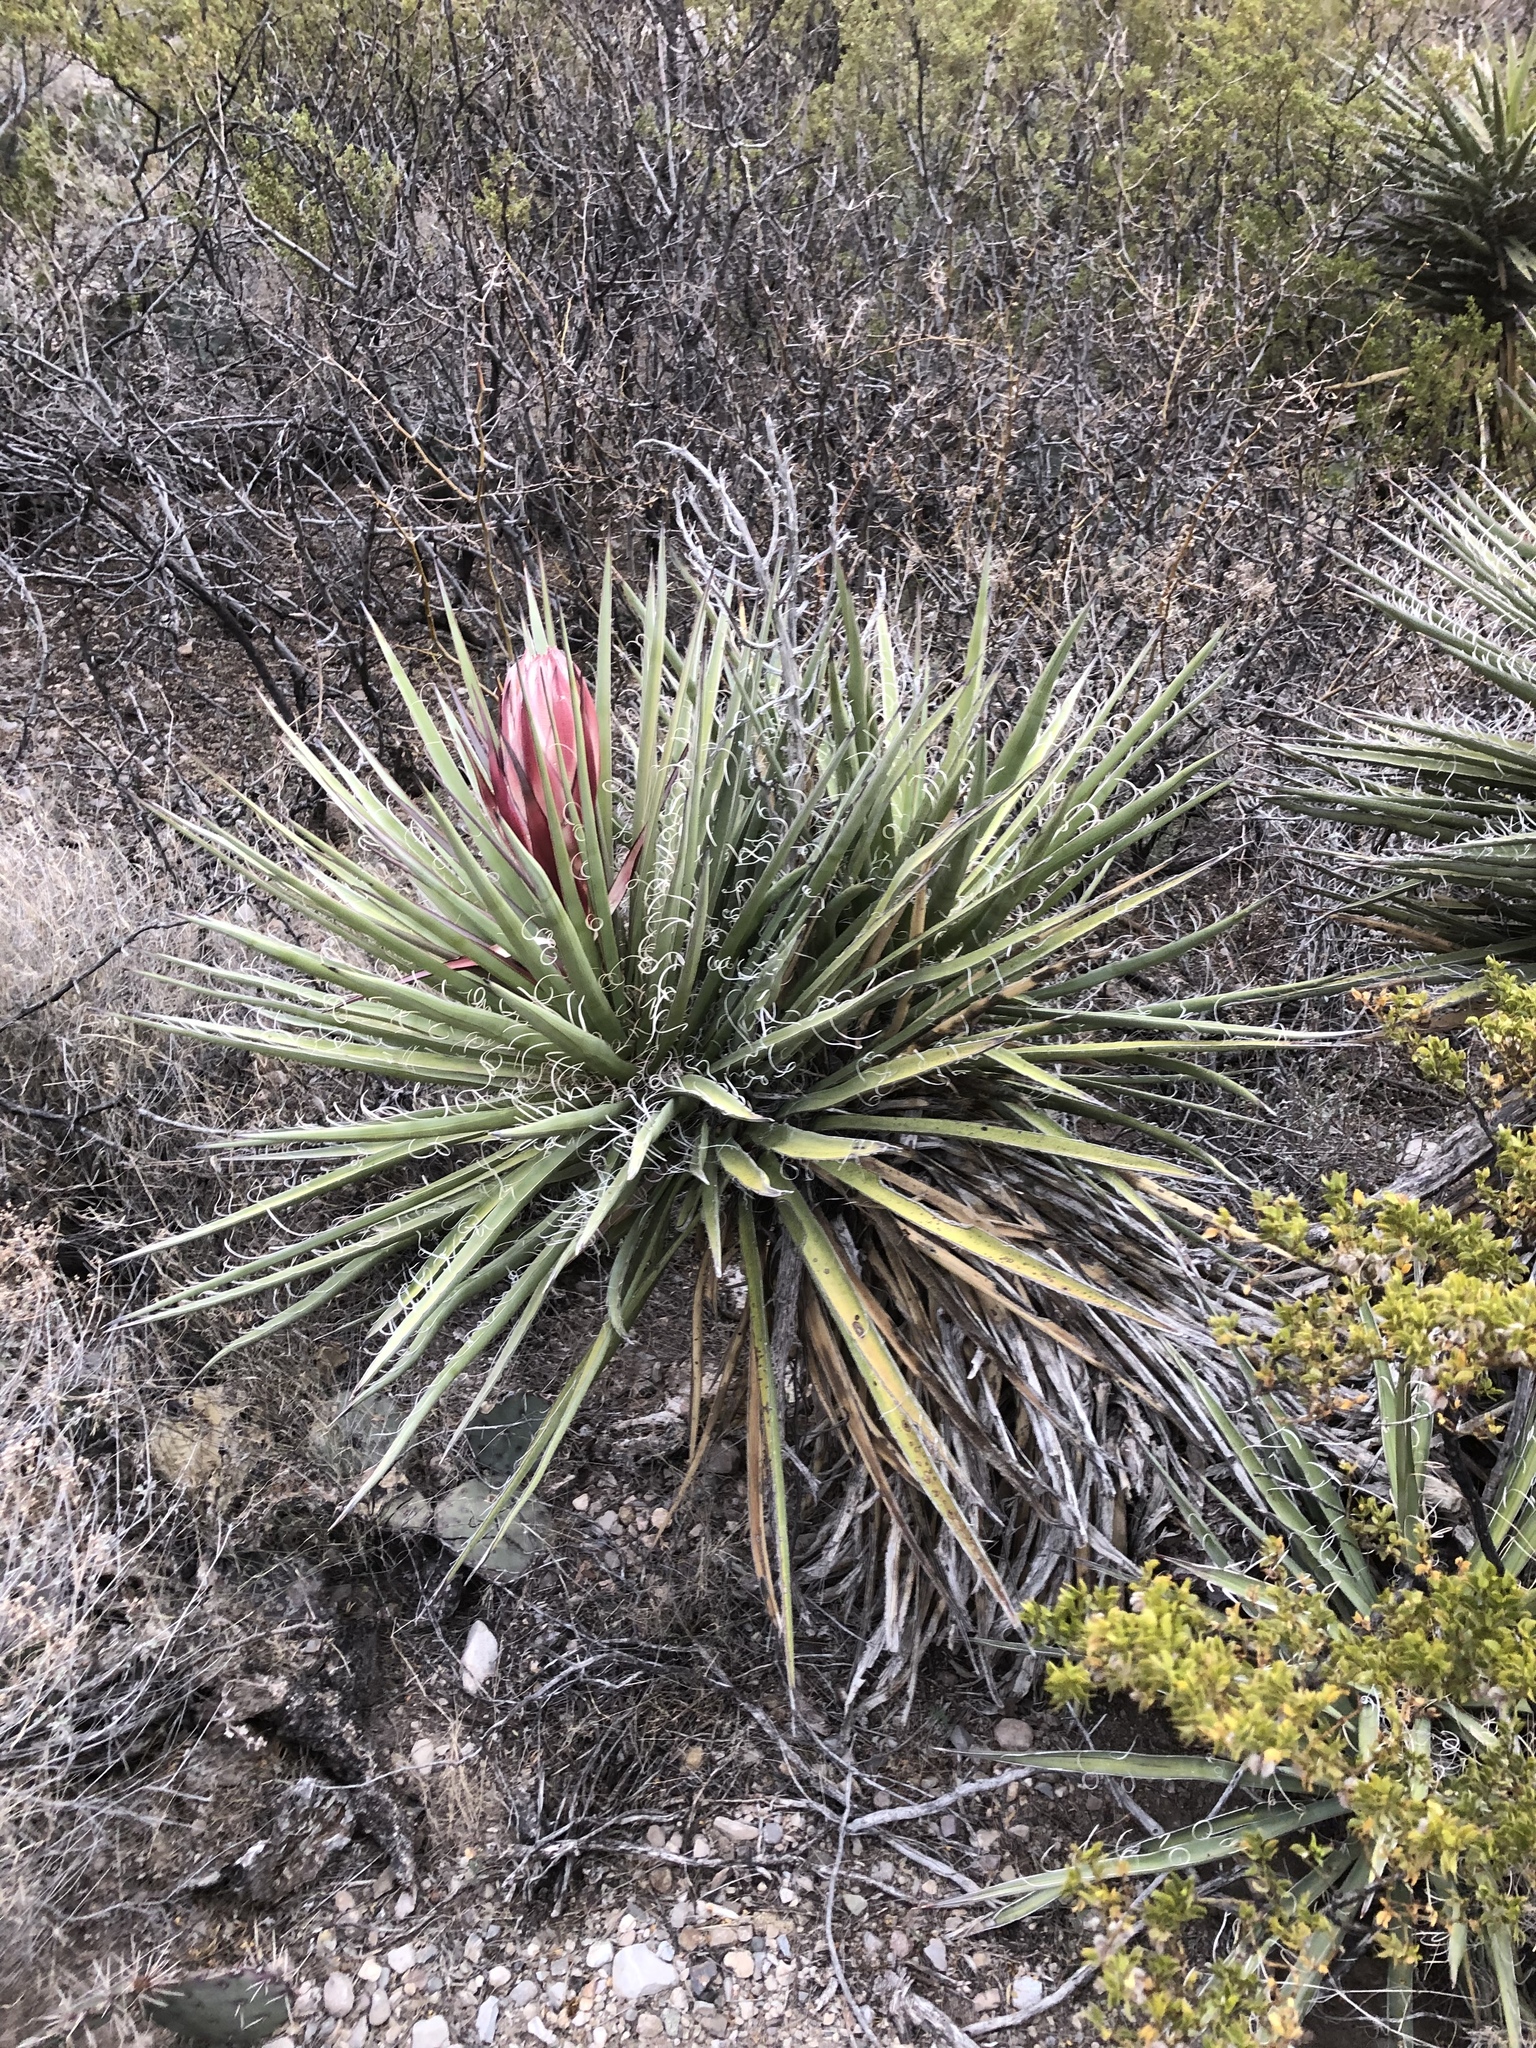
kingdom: Plantae
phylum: Tracheophyta
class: Liliopsida
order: Asparagales
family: Asparagaceae
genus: Yucca
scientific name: Yucca treculiana
